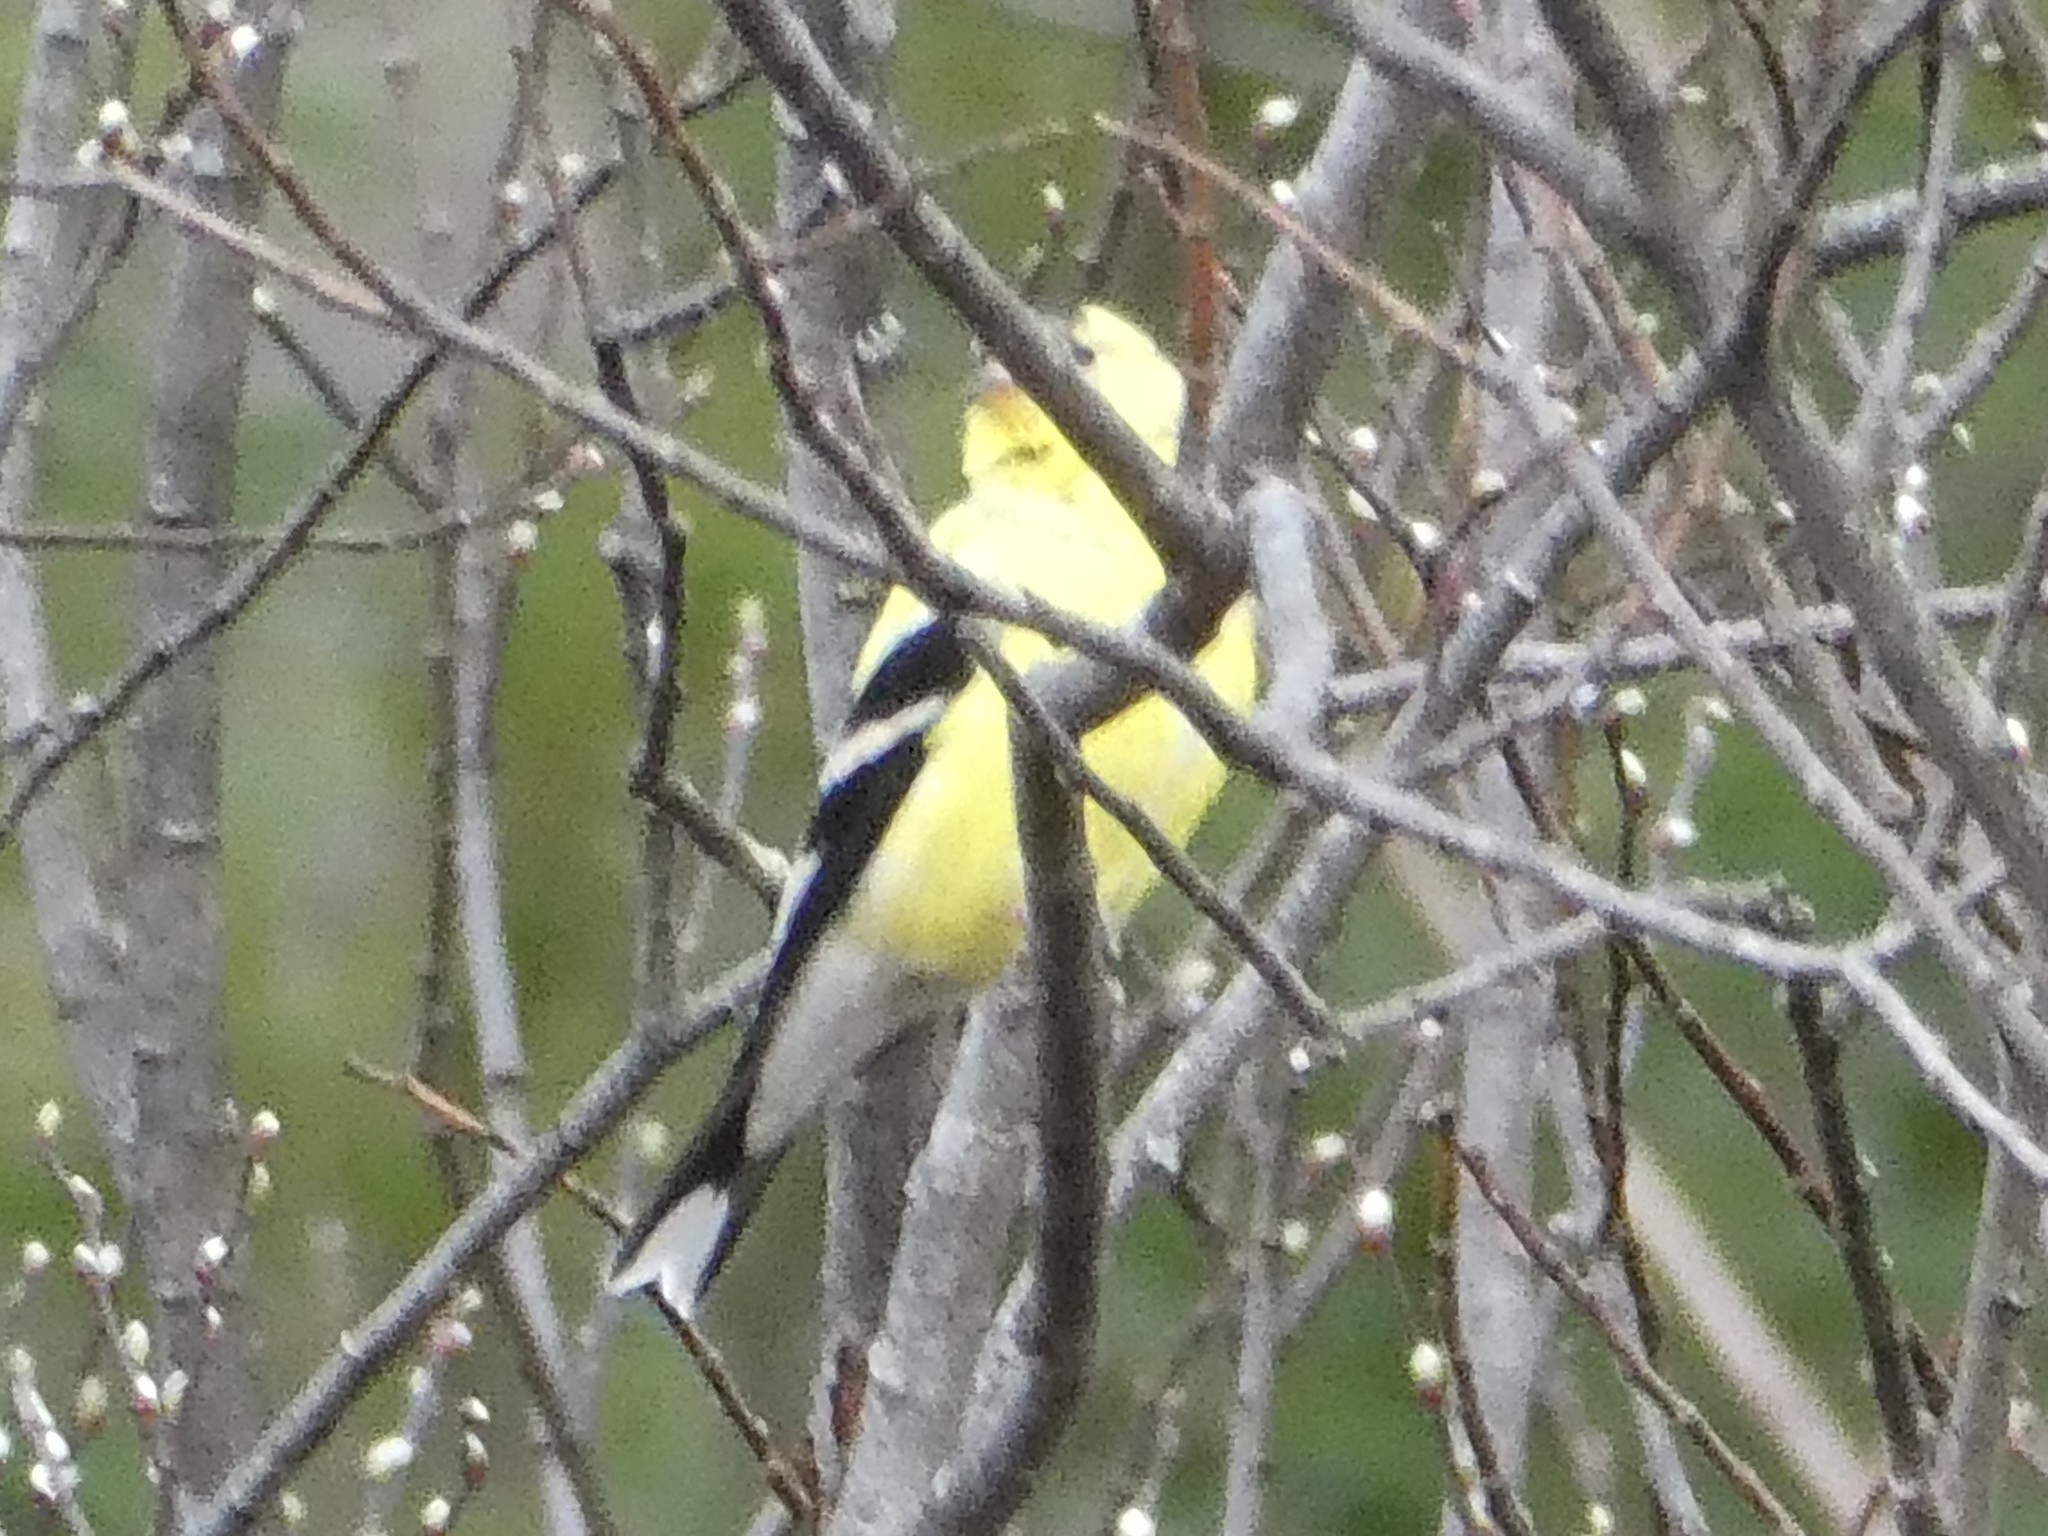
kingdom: Animalia
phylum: Chordata
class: Aves
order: Passeriformes
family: Fringillidae
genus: Spinus
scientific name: Spinus tristis
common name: American goldfinch
